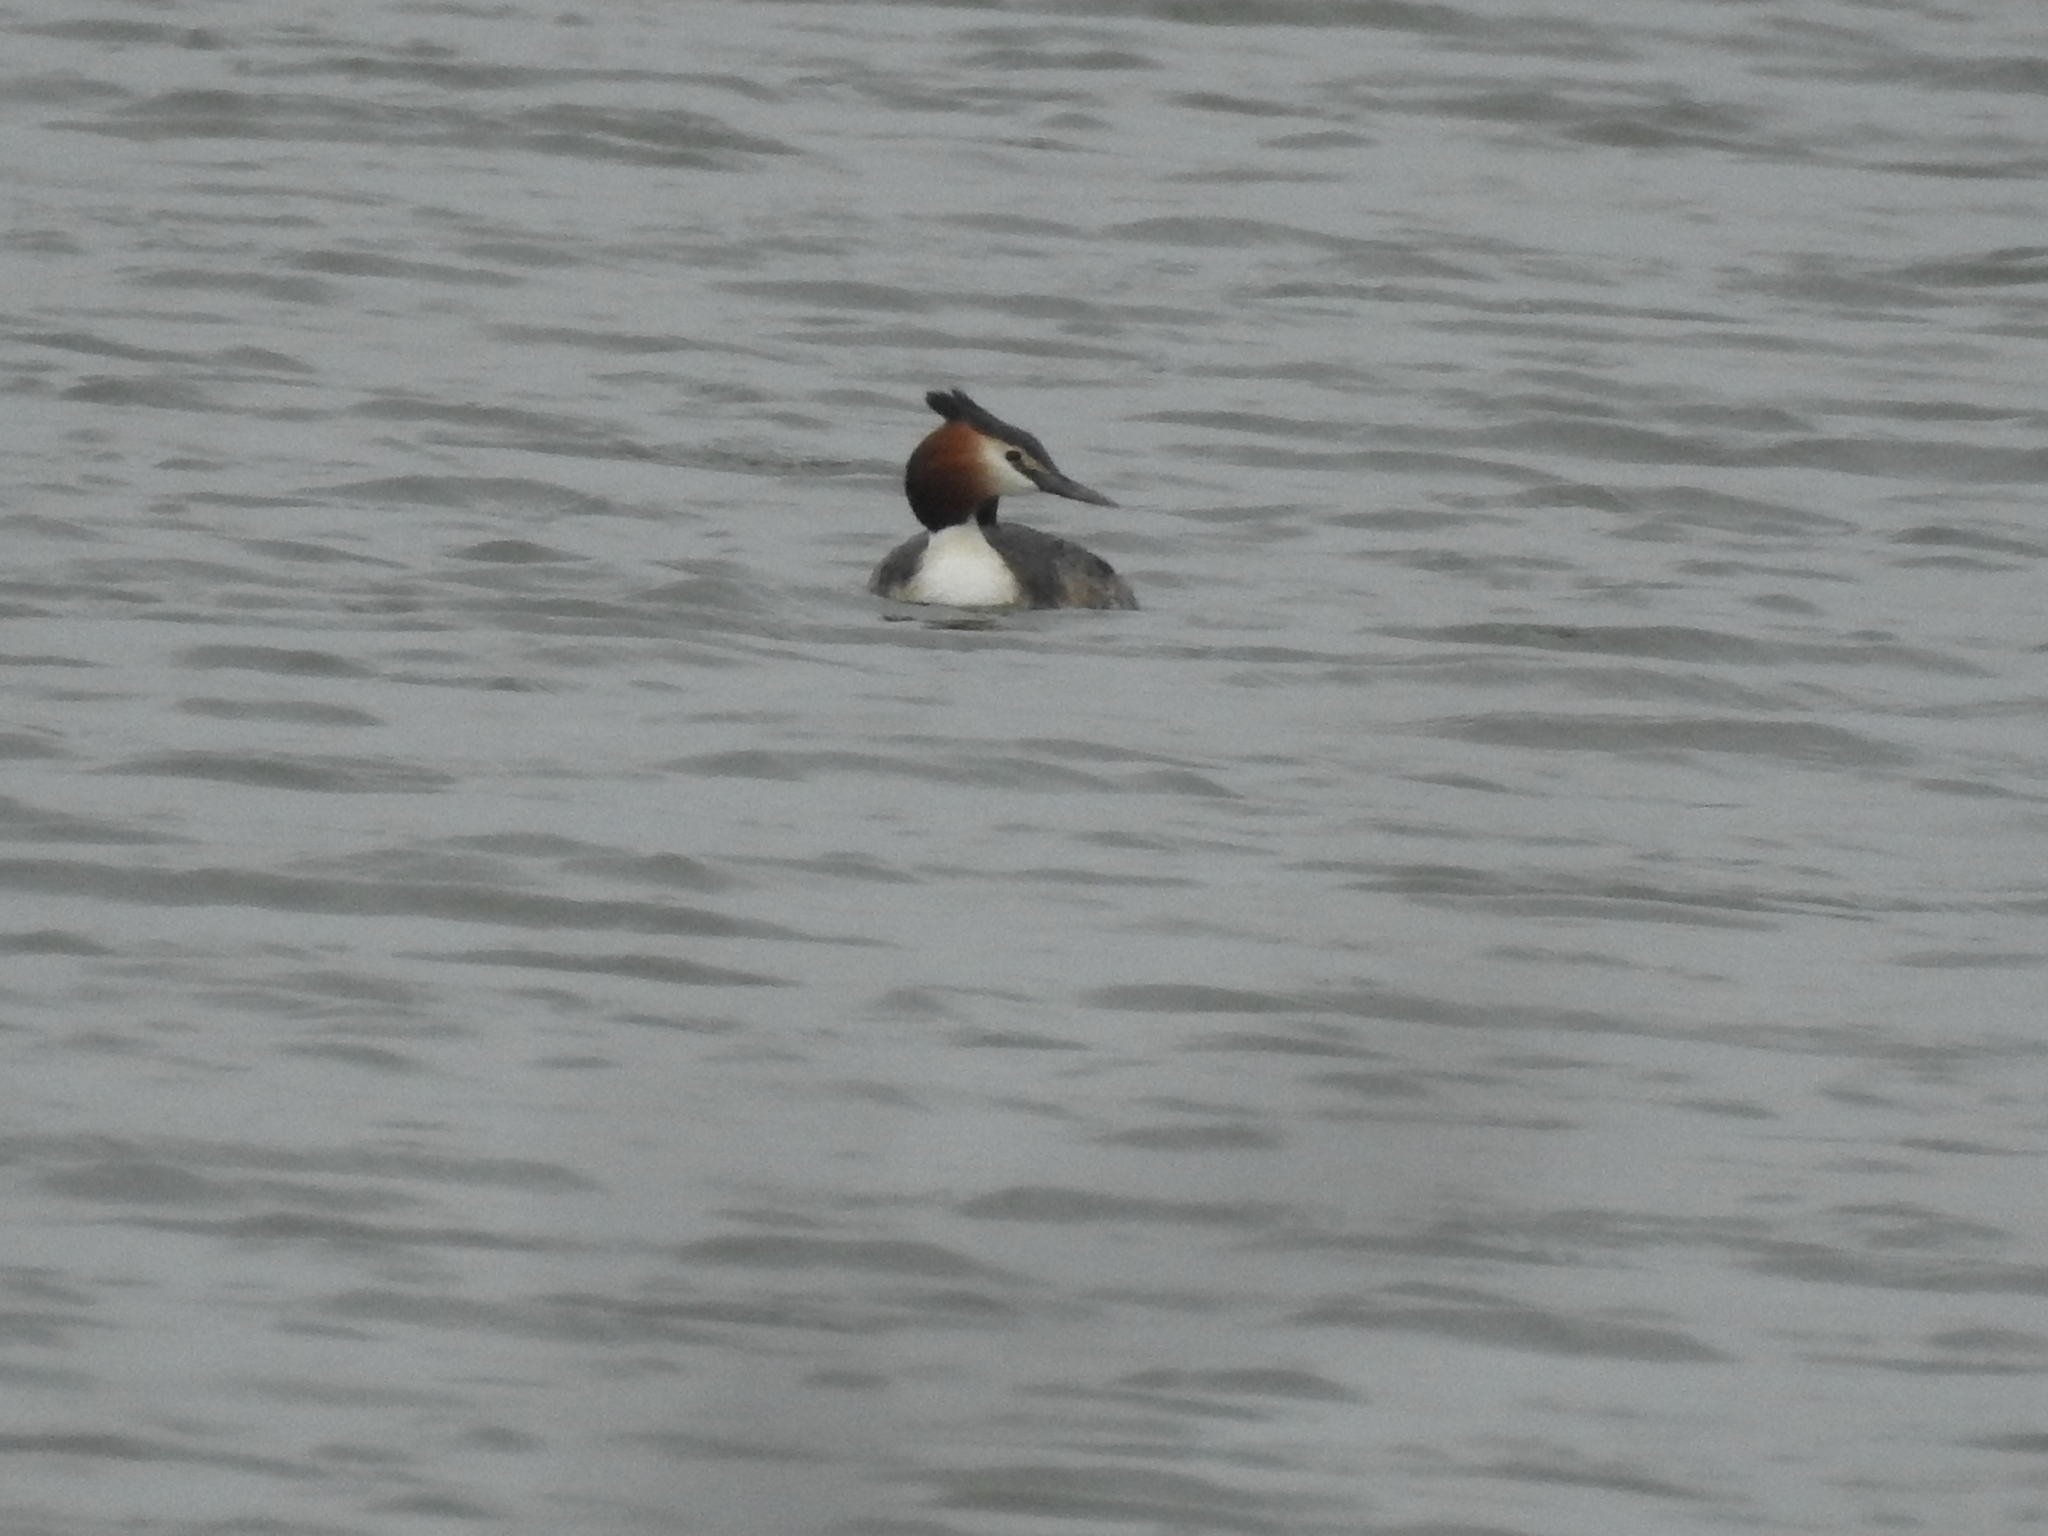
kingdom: Animalia
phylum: Chordata
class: Aves
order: Podicipediformes
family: Podicipedidae
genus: Podiceps
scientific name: Podiceps cristatus
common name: Great crested grebe
